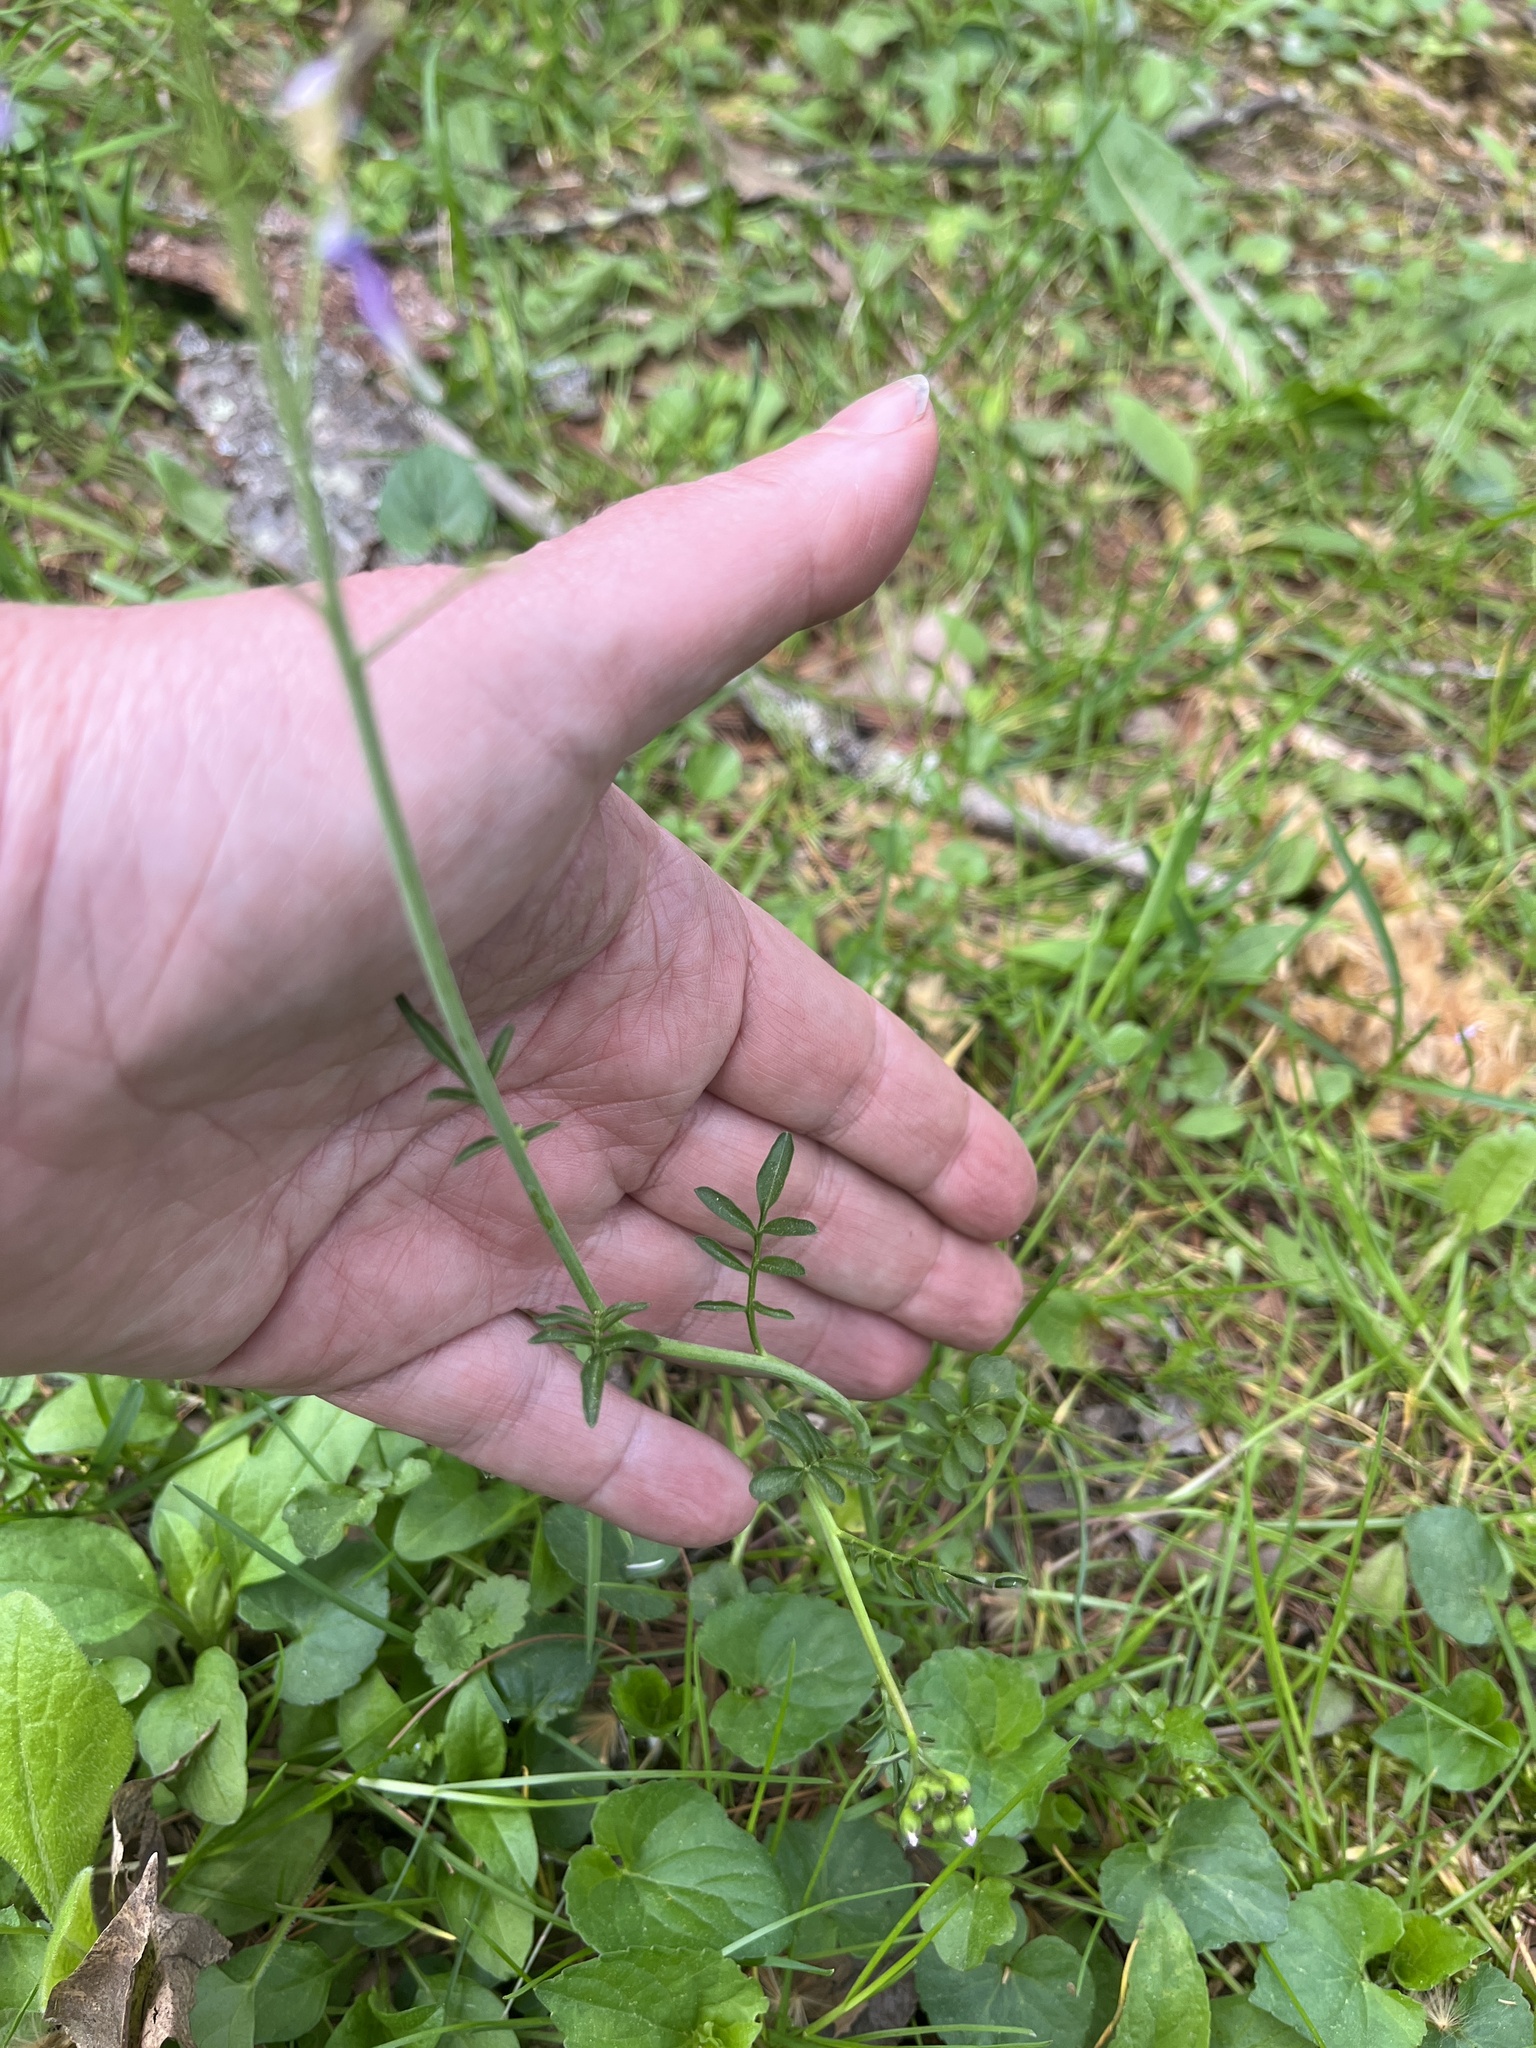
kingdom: Plantae
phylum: Tracheophyta
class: Magnoliopsida
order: Brassicales
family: Brassicaceae
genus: Cardamine
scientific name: Cardamine pratensis
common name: Cuckoo flower
